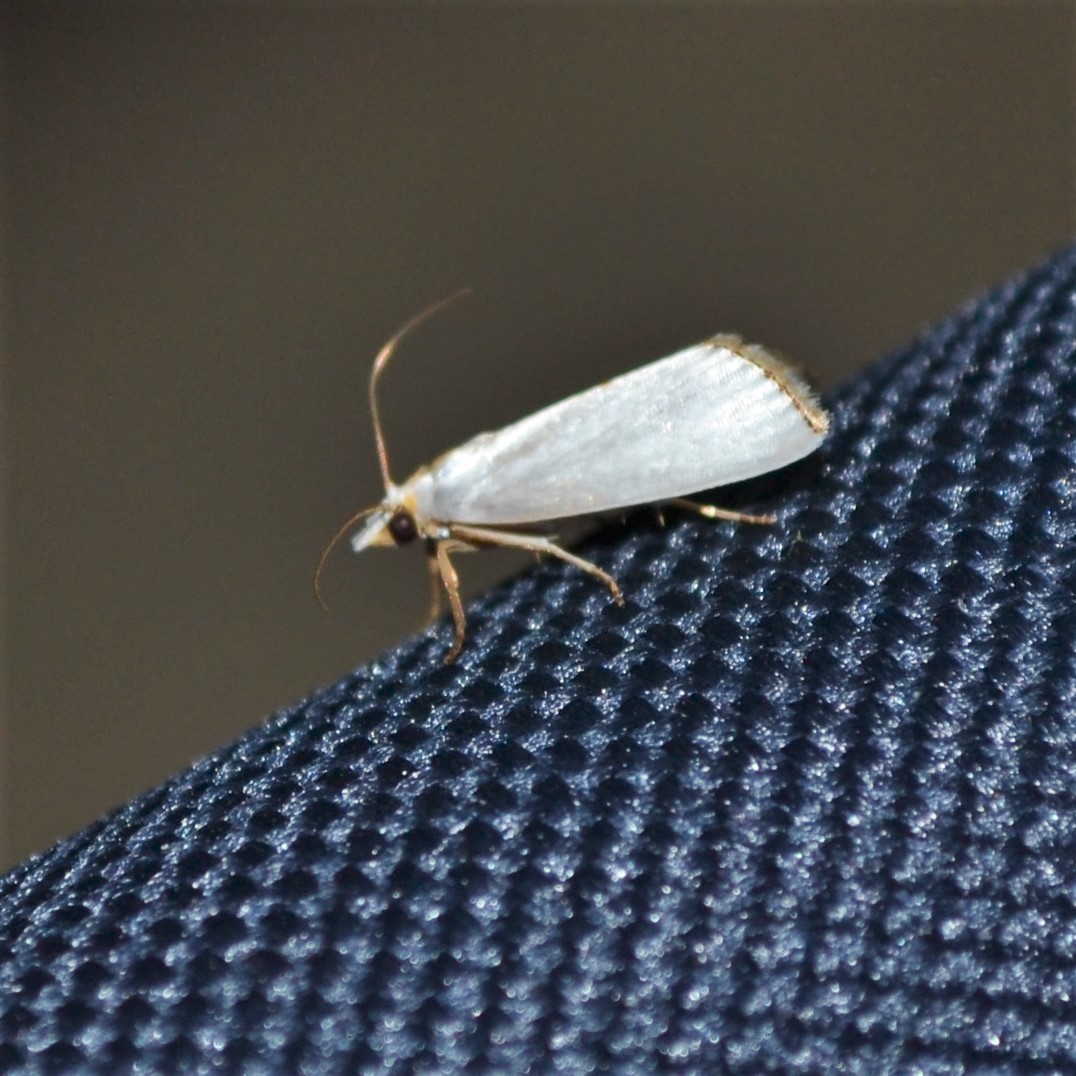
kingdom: Animalia
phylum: Arthropoda
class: Insecta
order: Lepidoptera
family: Crambidae
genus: Argyria
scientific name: Argyria nivalis
